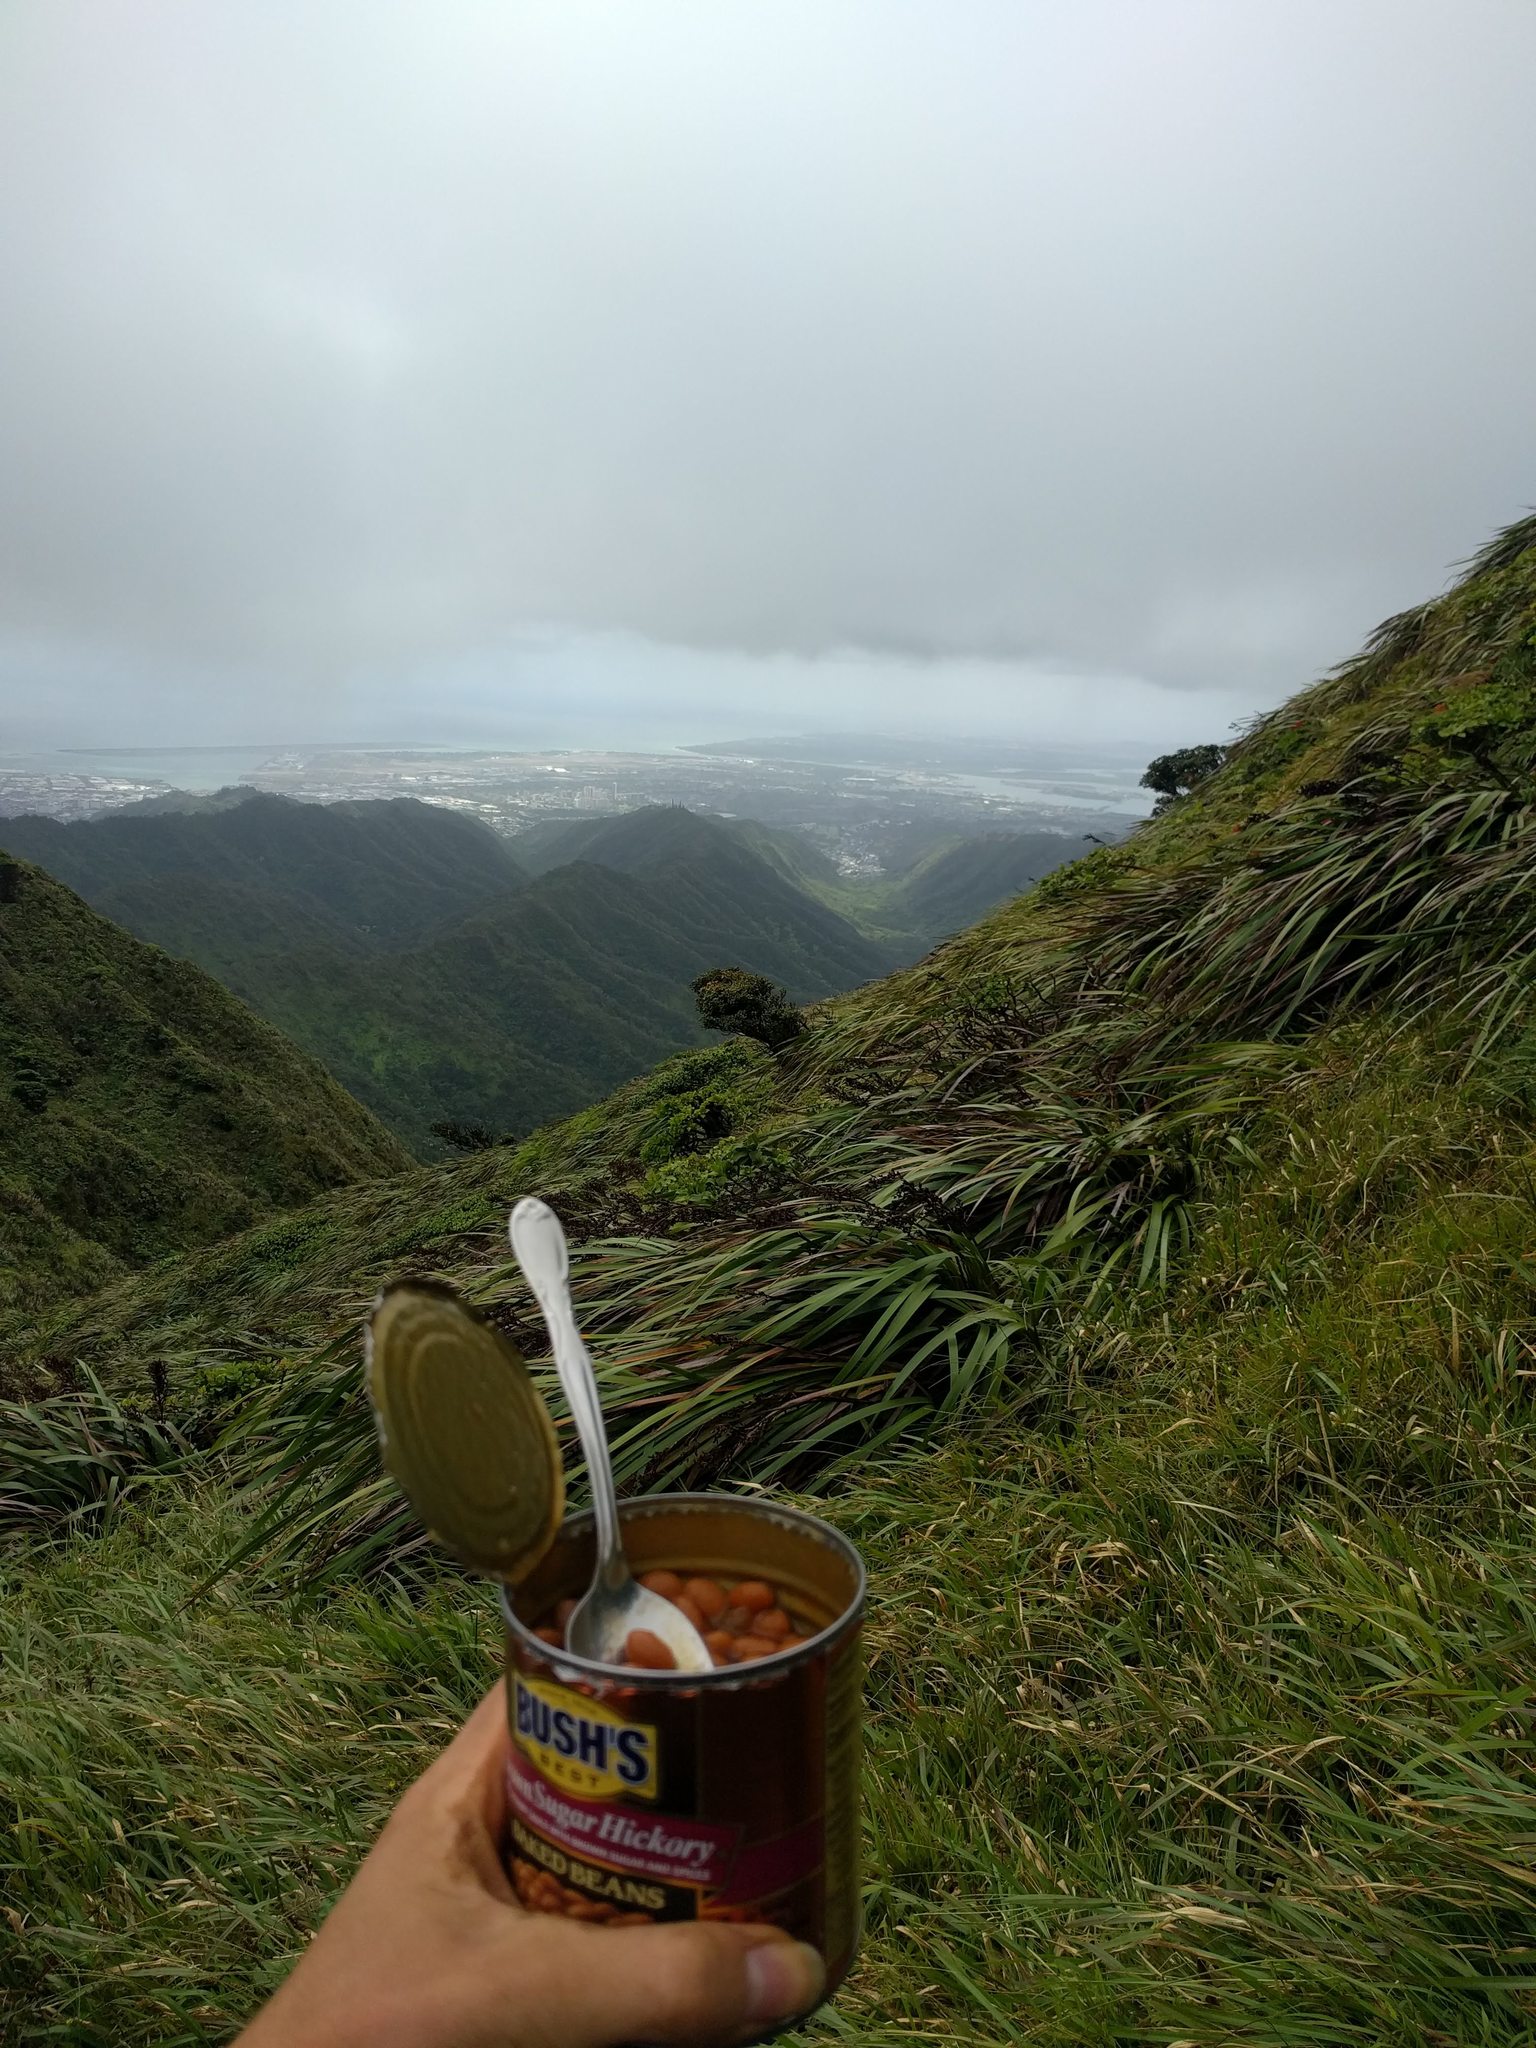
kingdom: Plantae
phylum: Tracheophyta
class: Liliopsida
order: Poales
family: Cyperaceae
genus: Machaerina
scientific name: Machaerina angustifolia
